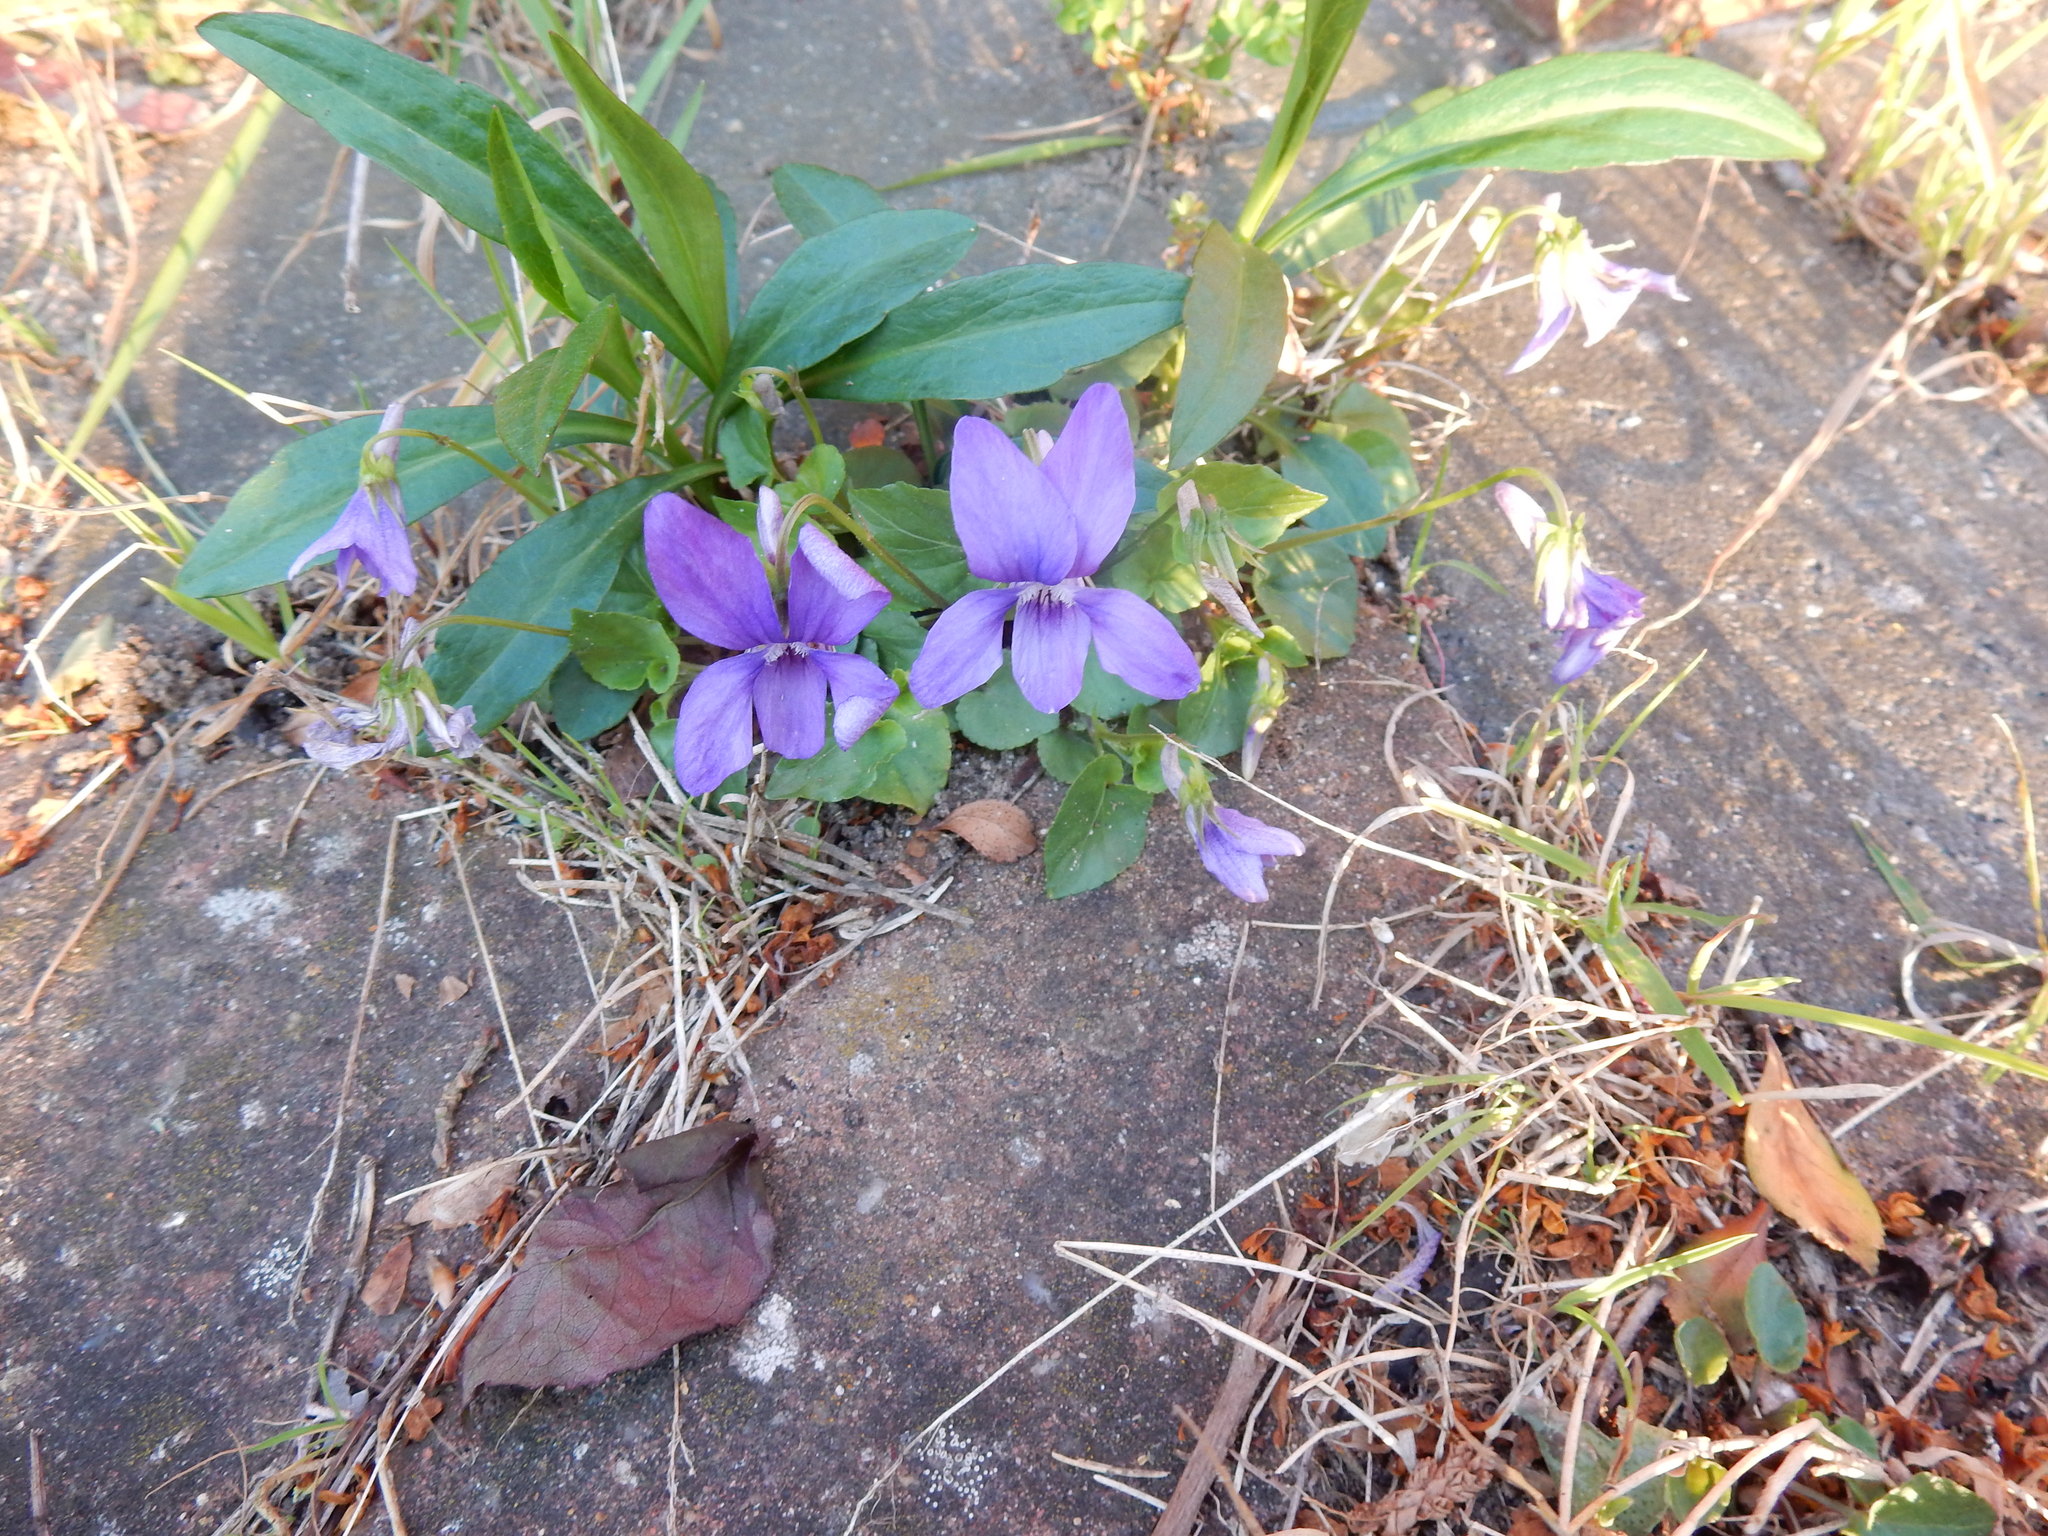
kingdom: Plantae
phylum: Tracheophyta
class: Magnoliopsida
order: Malpighiales
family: Violaceae
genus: Viola
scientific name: Viola riviniana
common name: Common dog-violet
